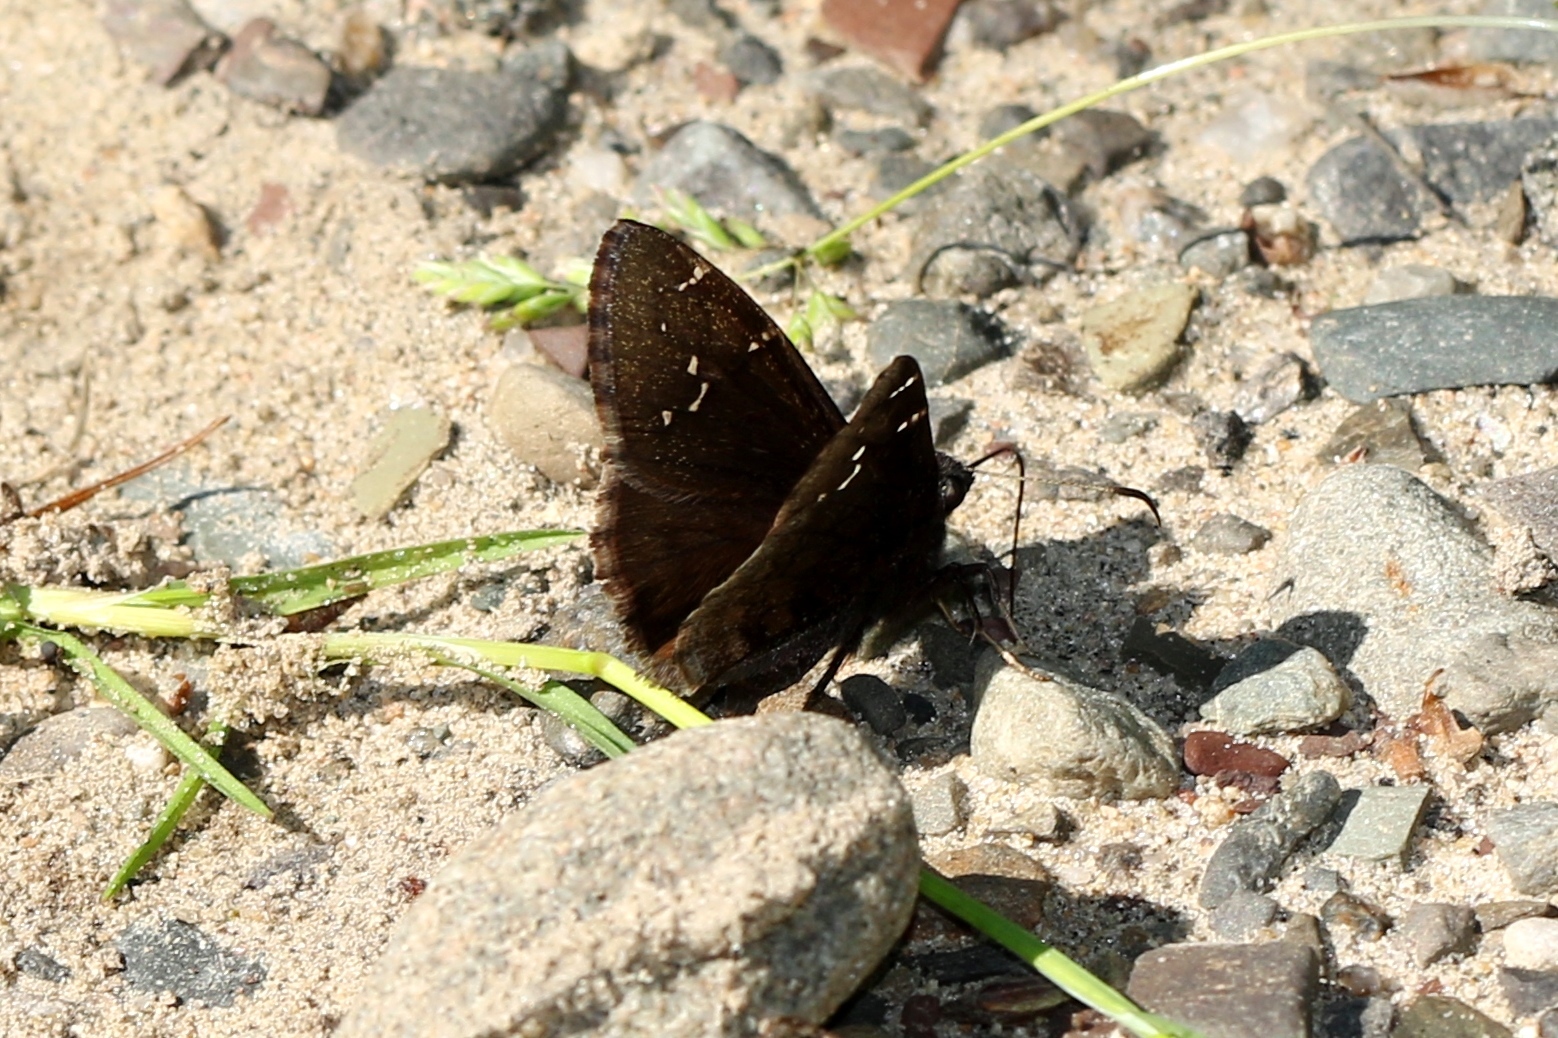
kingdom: Animalia
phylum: Arthropoda
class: Insecta
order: Lepidoptera
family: Hesperiidae
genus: Thorybes
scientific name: Thorybes pylades
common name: Northern cloudywing
